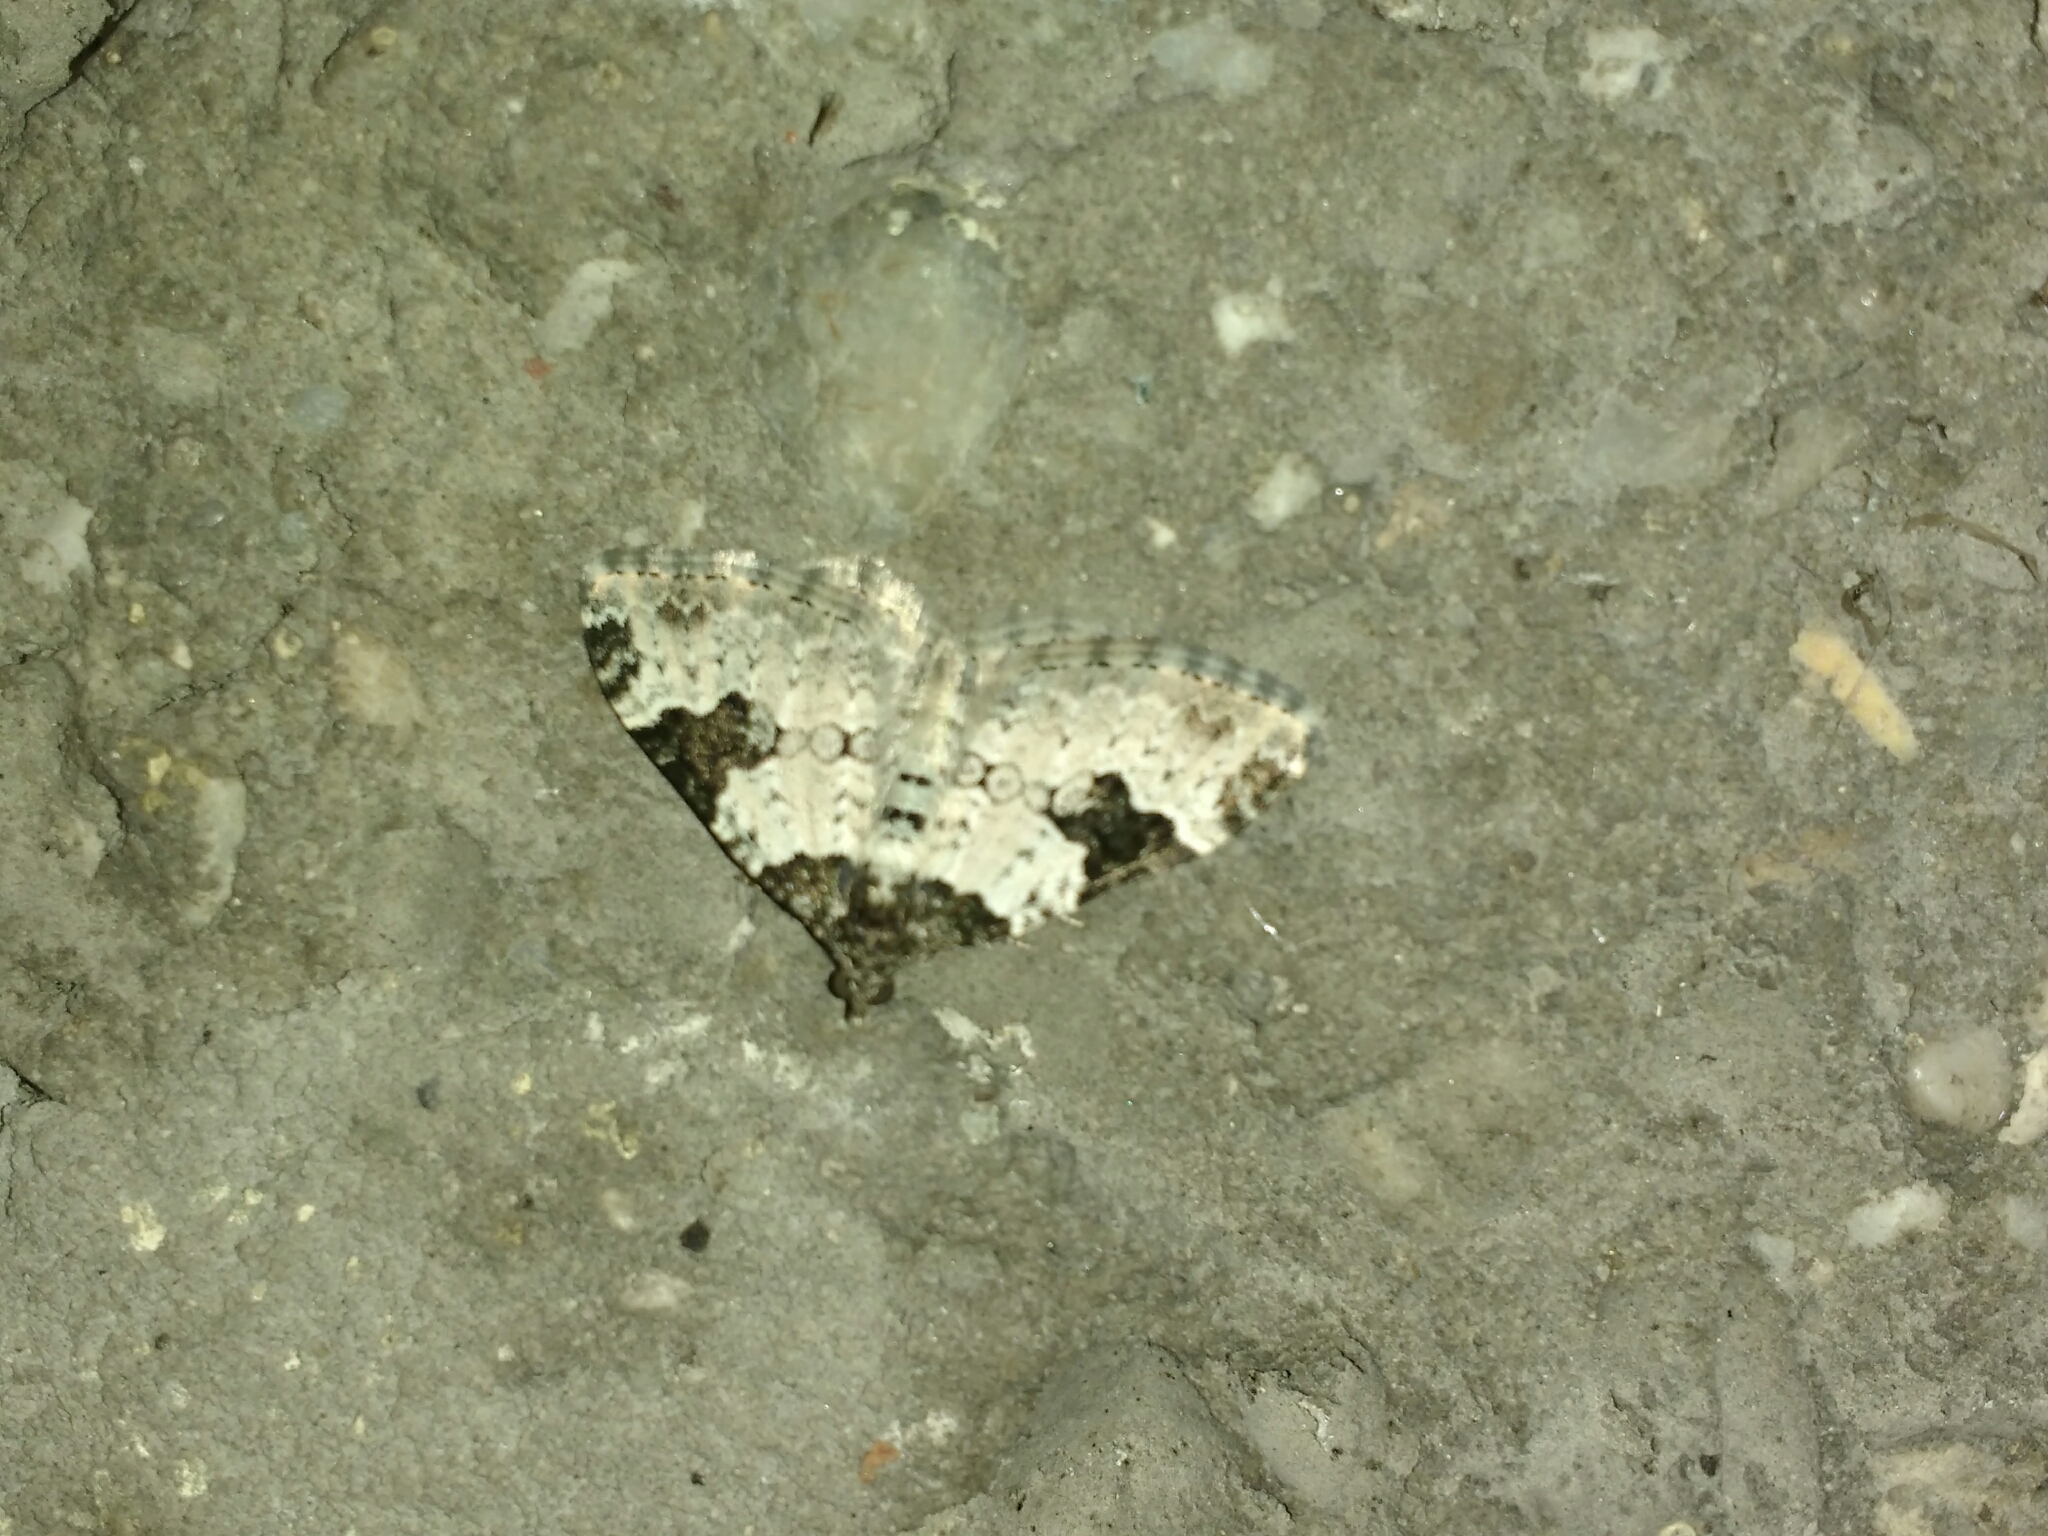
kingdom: Animalia
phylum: Arthropoda
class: Insecta
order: Lepidoptera
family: Geometridae
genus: Xanthorhoe
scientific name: Xanthorhoe fluctuata
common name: Garden carpet
